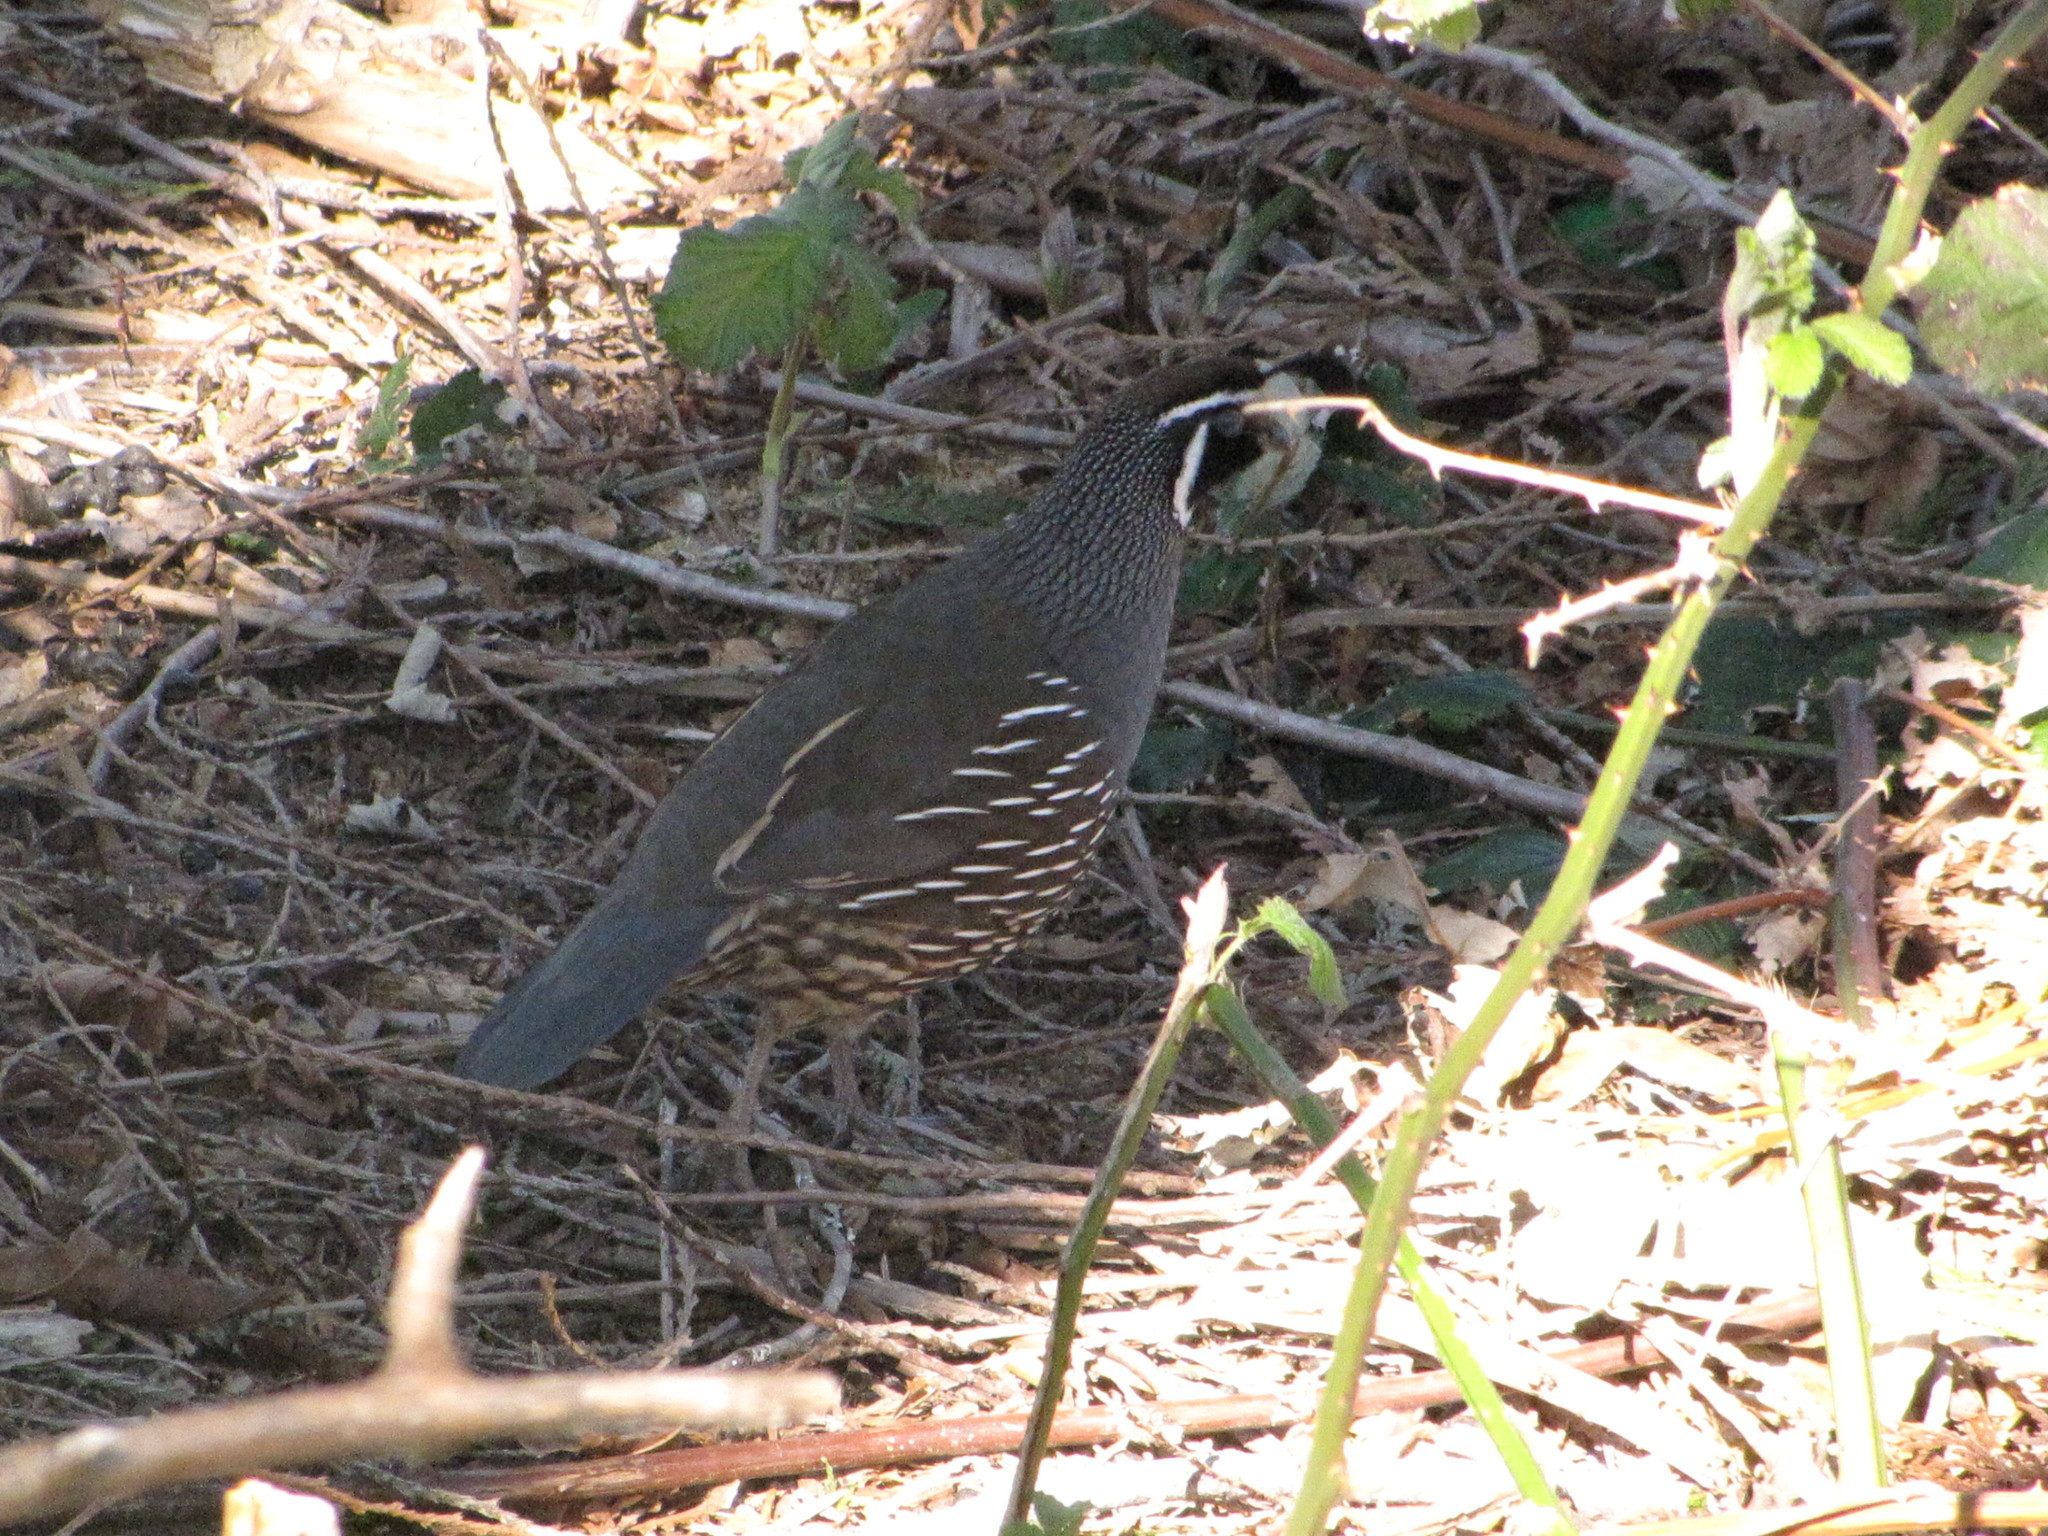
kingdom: Animalia
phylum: Chordata
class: Aves
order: Galliformes
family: Odontophoridae
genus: Callipepla
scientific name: Callipepla californica
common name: California quail
